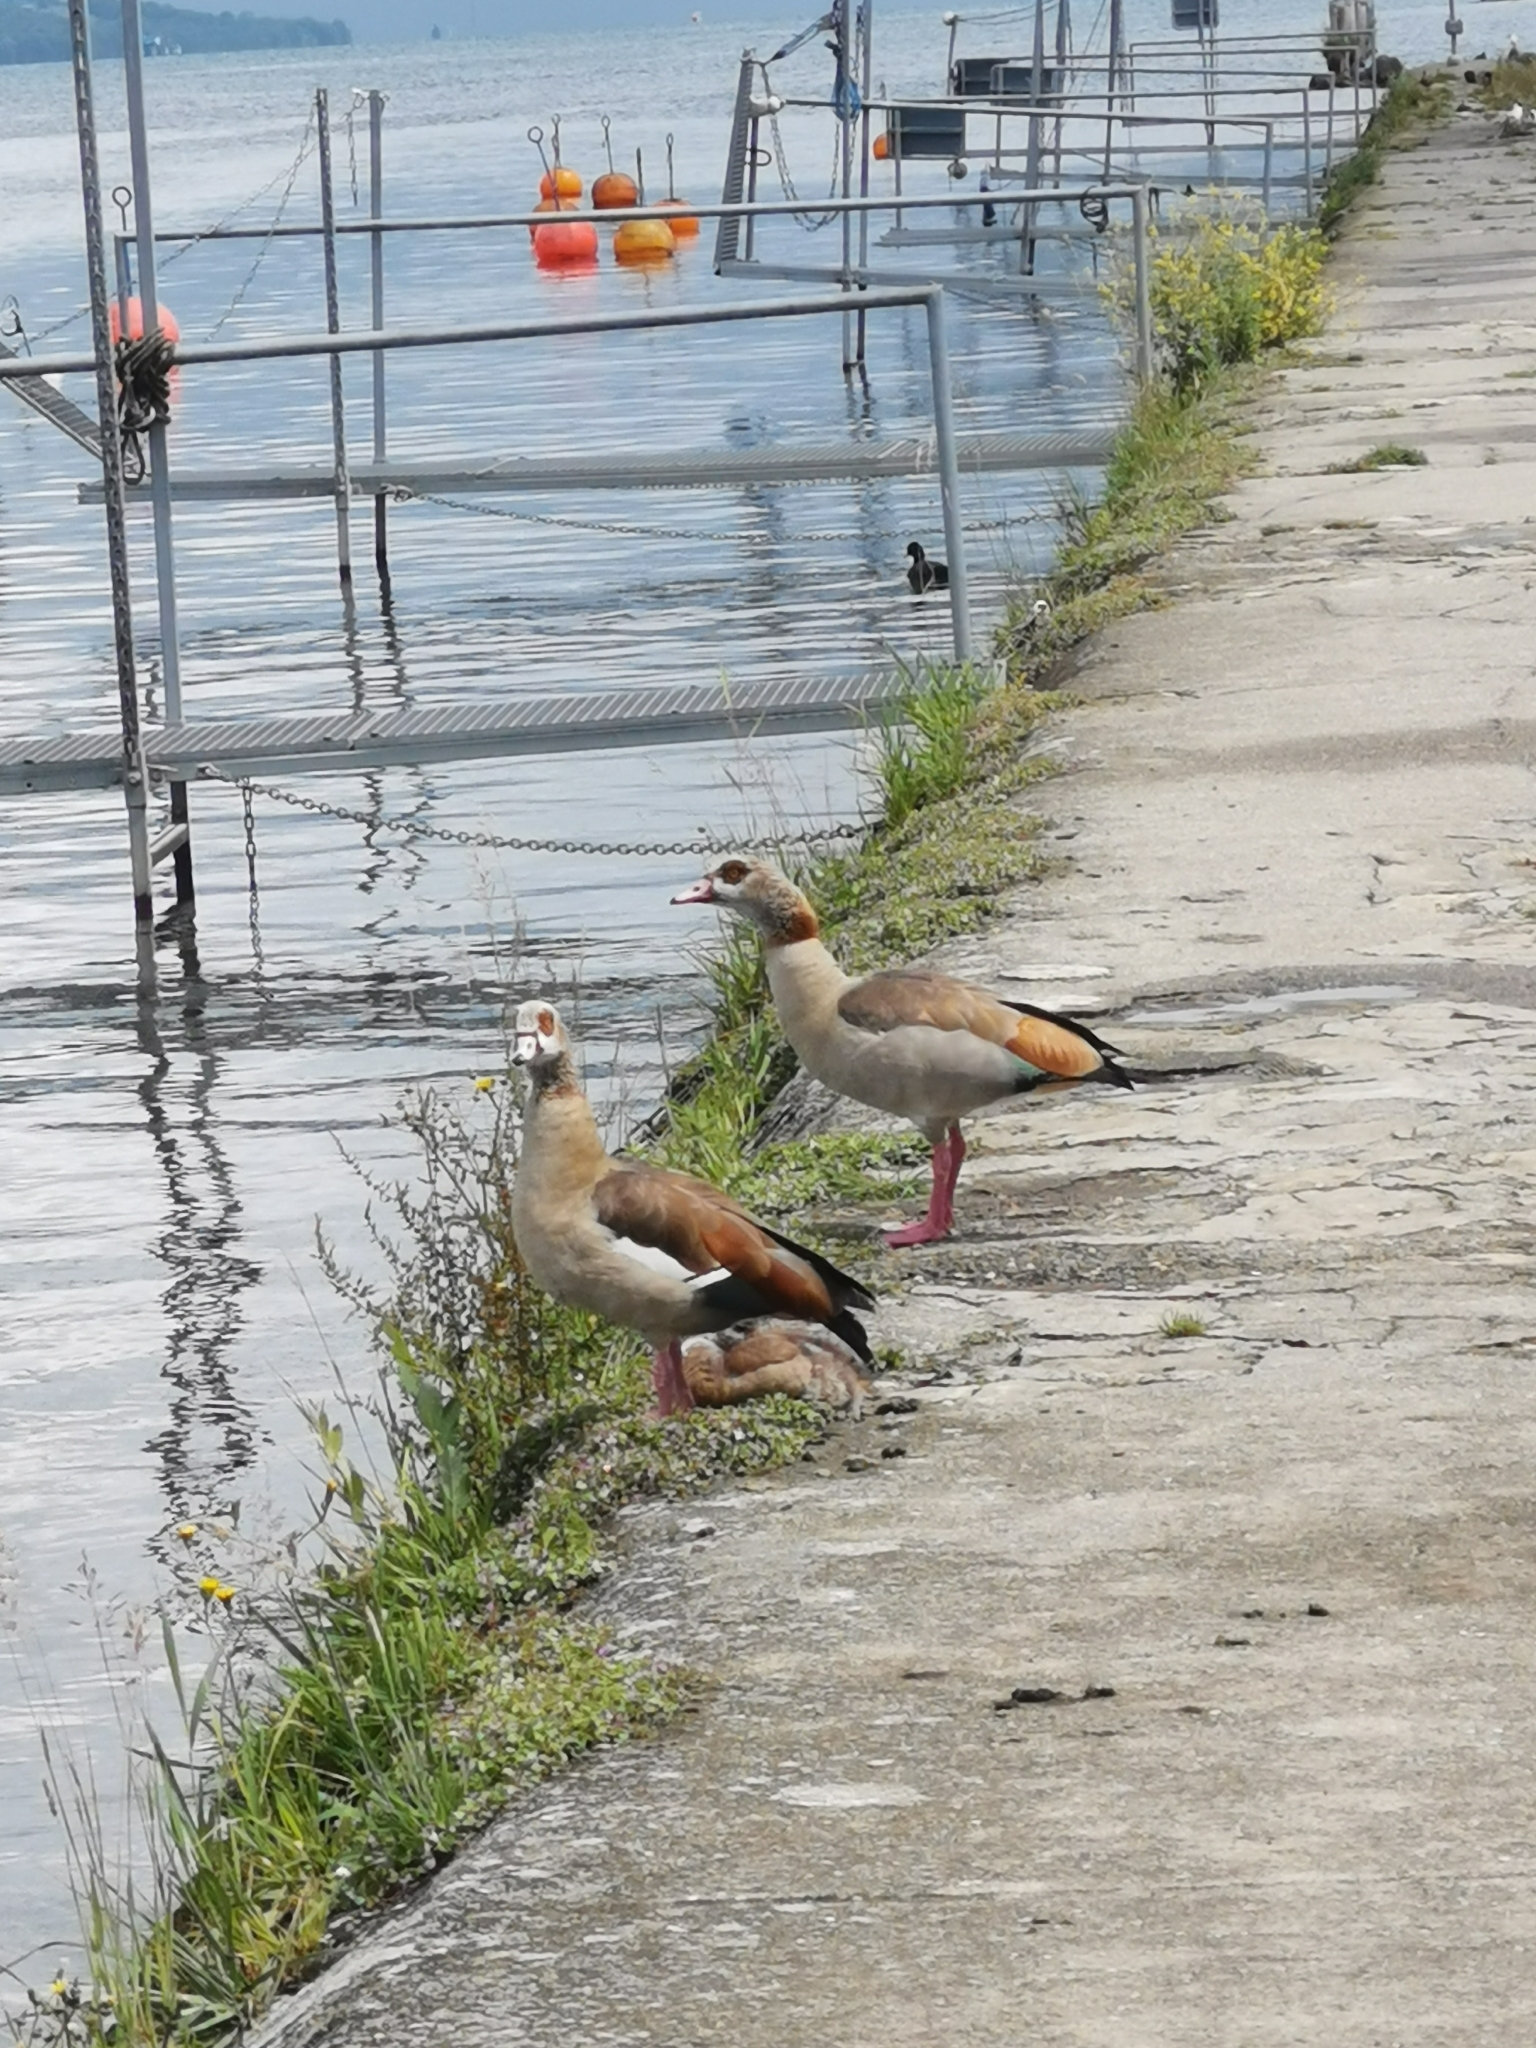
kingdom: Animalia
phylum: Chordata
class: Aves
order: Anseriformes
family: Anatidae
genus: Alopochen
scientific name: Alopochen aegyptiaca
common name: Egyptian goose
